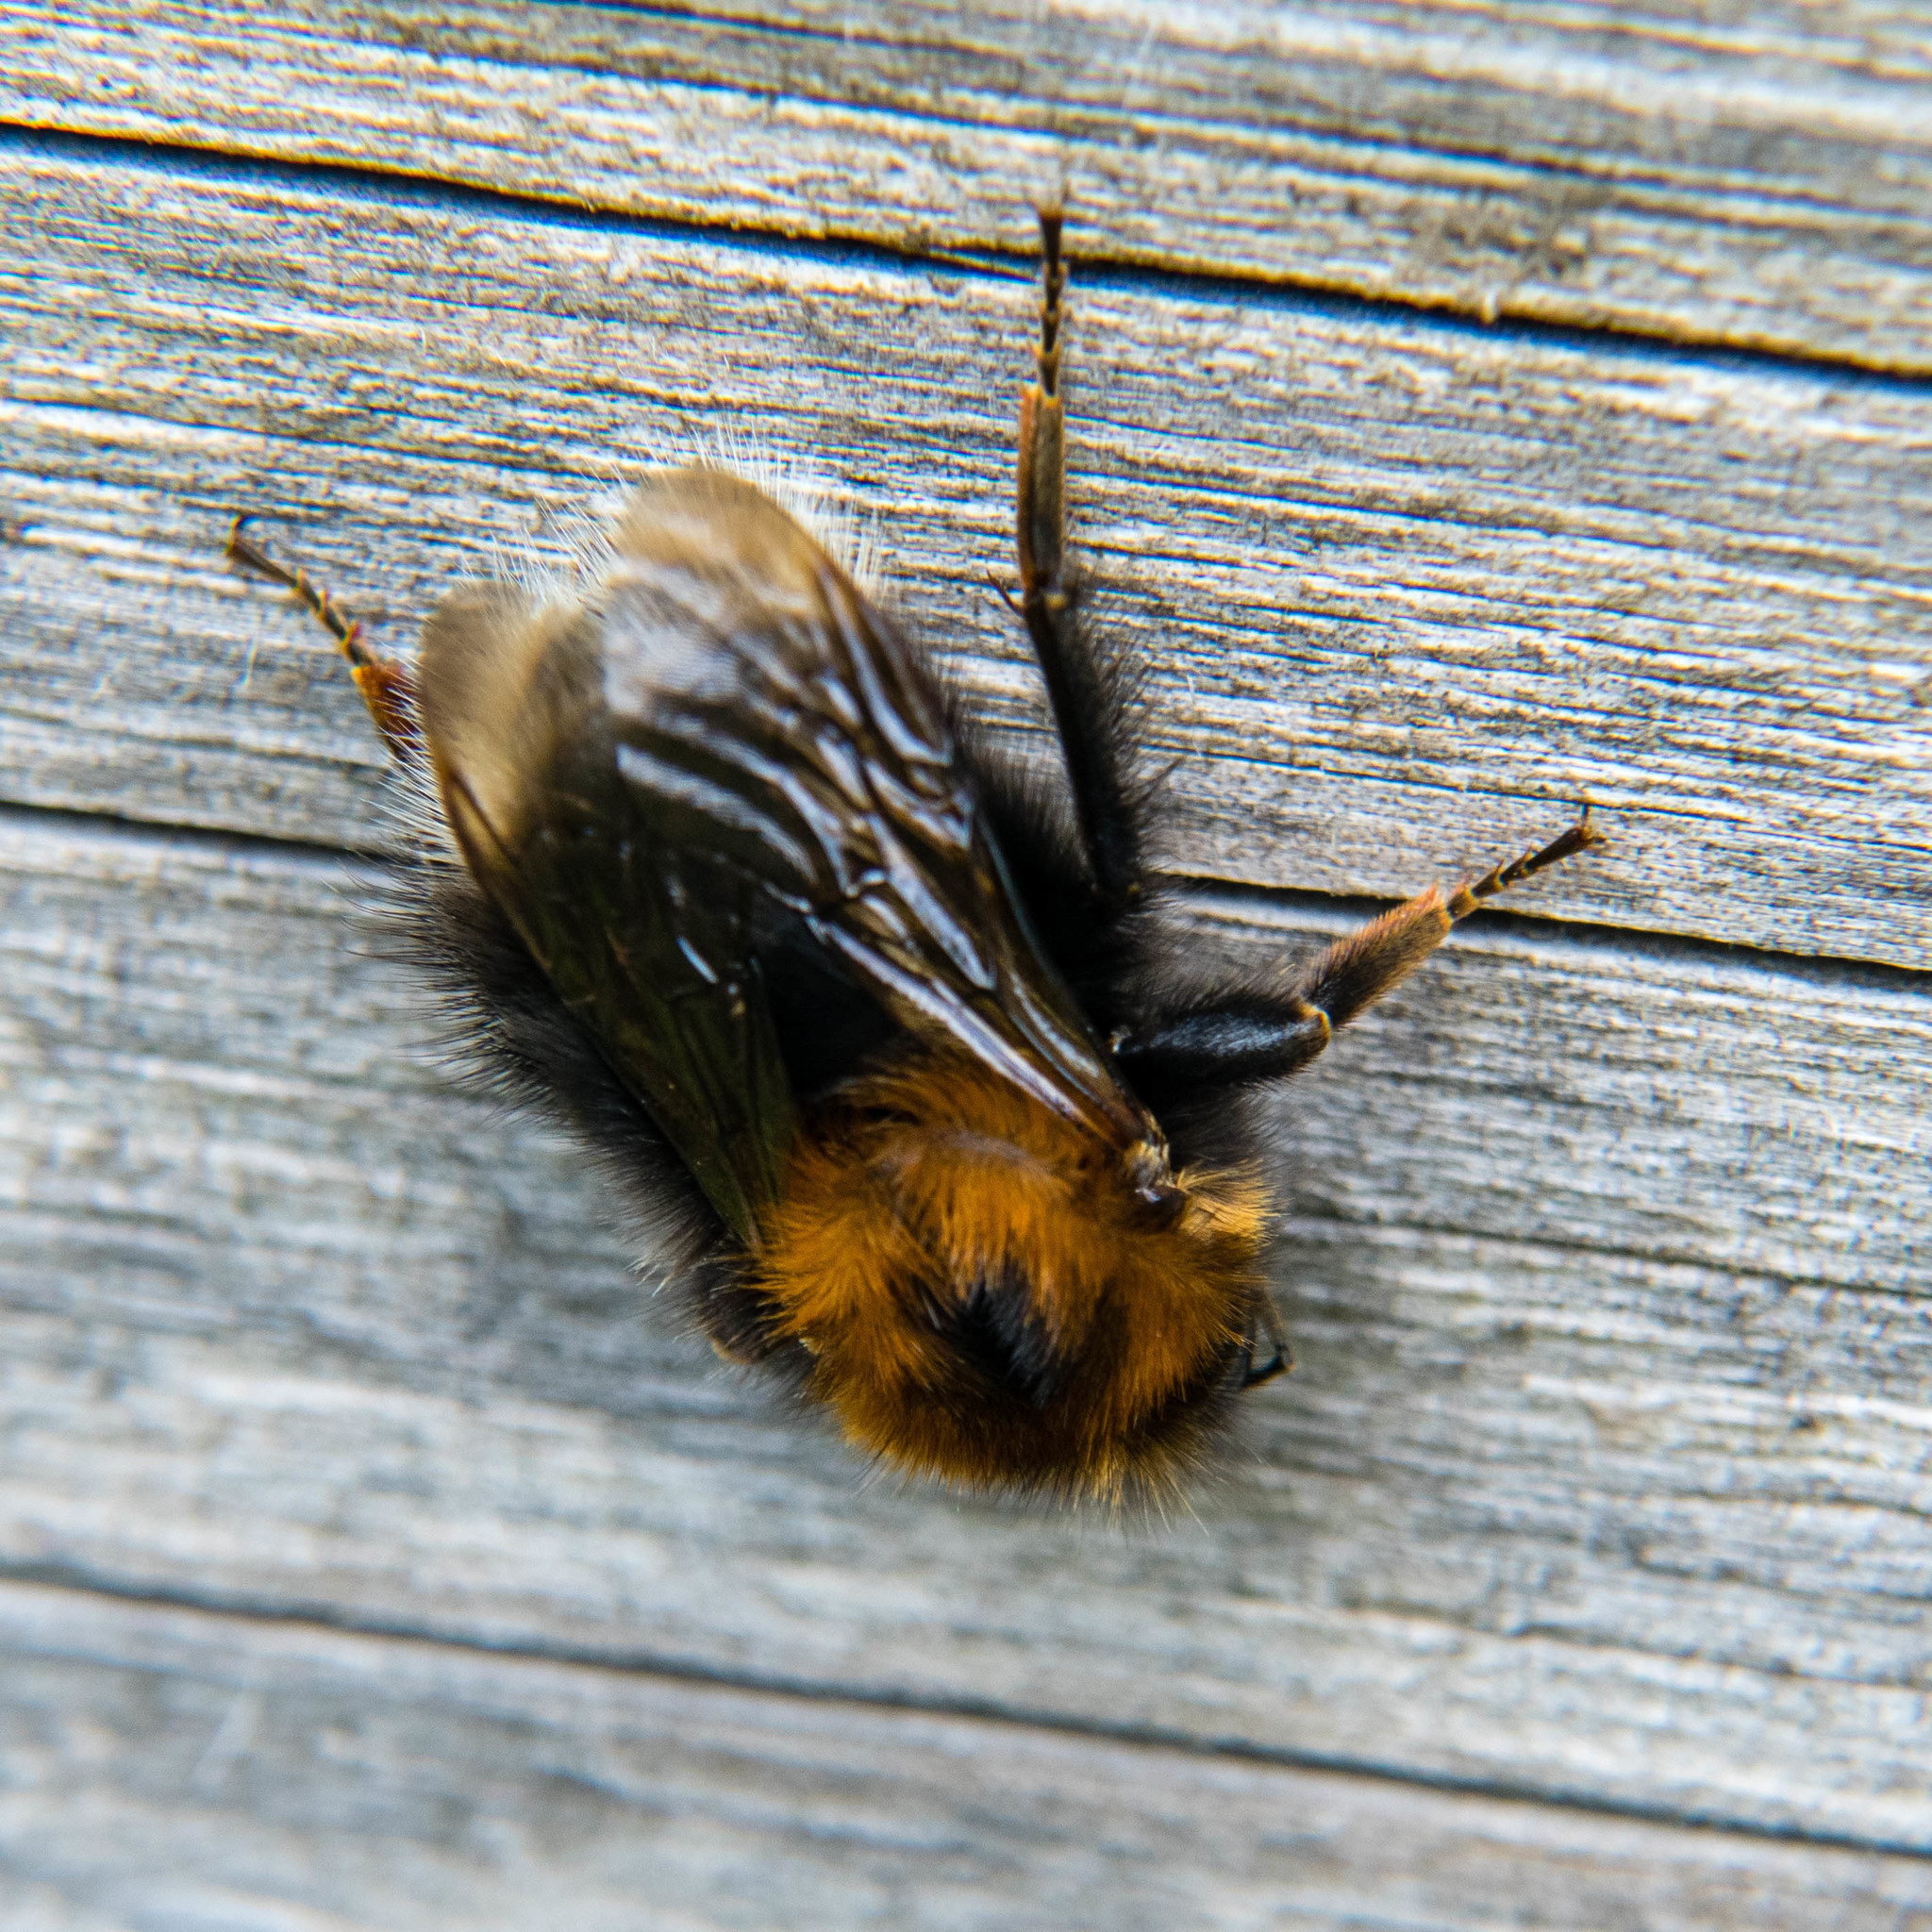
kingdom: Animalia
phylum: Arthropoda
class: Insecta
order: Hymenoptera
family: Apidae
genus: Bombus
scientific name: Bombus hypnorum
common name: New garden bumblebee
